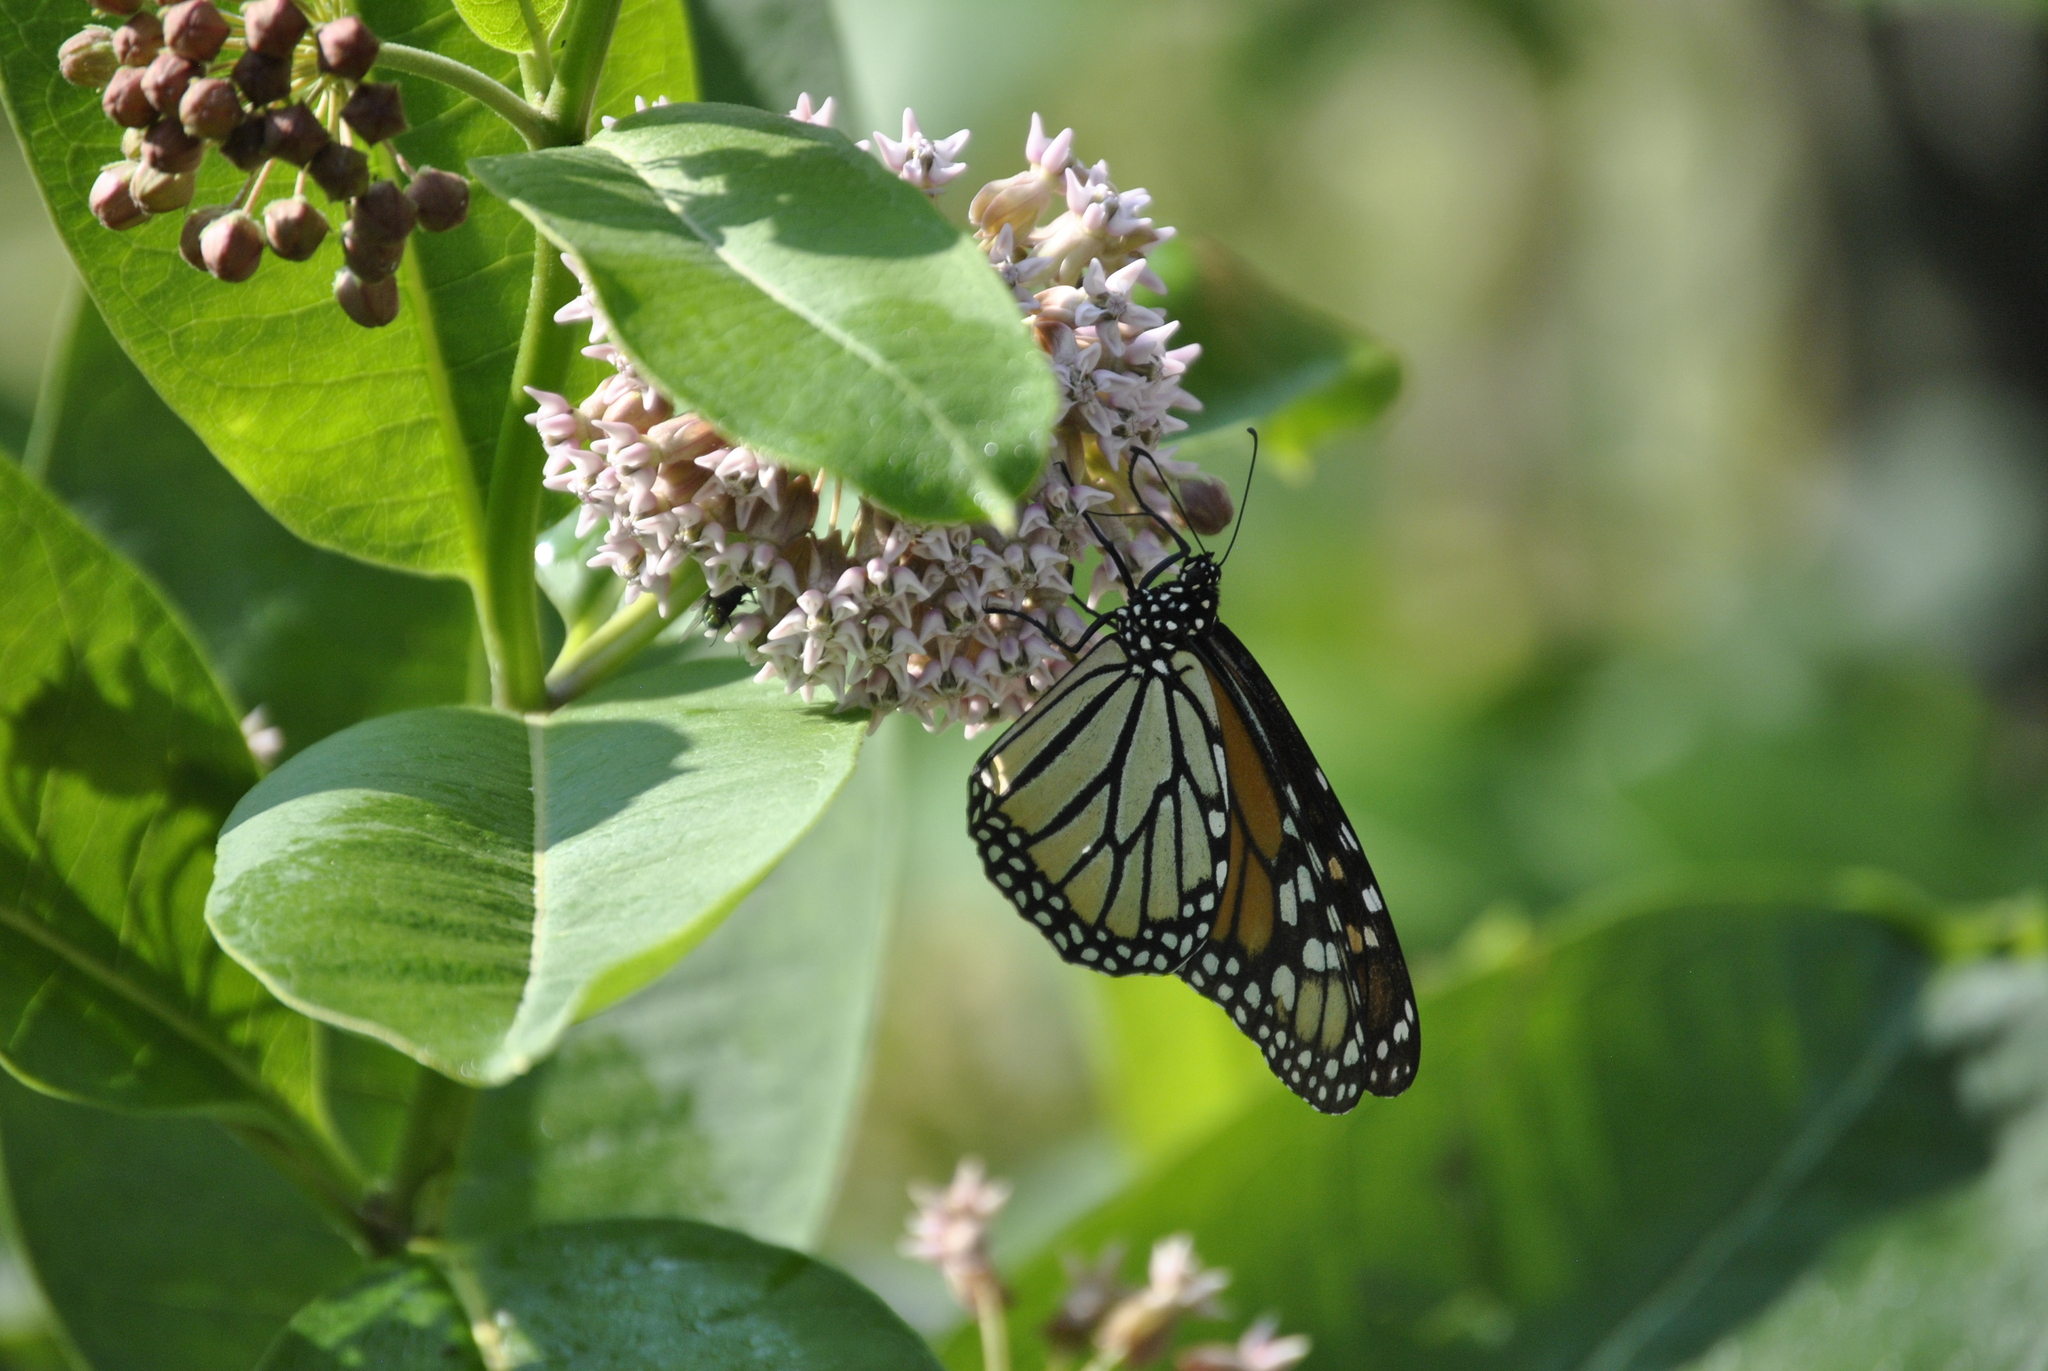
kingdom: Animalia
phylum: Arthropoda
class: Insecta
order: Lepidoptera
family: Nymphalidae
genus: Danaus
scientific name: Danaus plexippus
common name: Monarch
